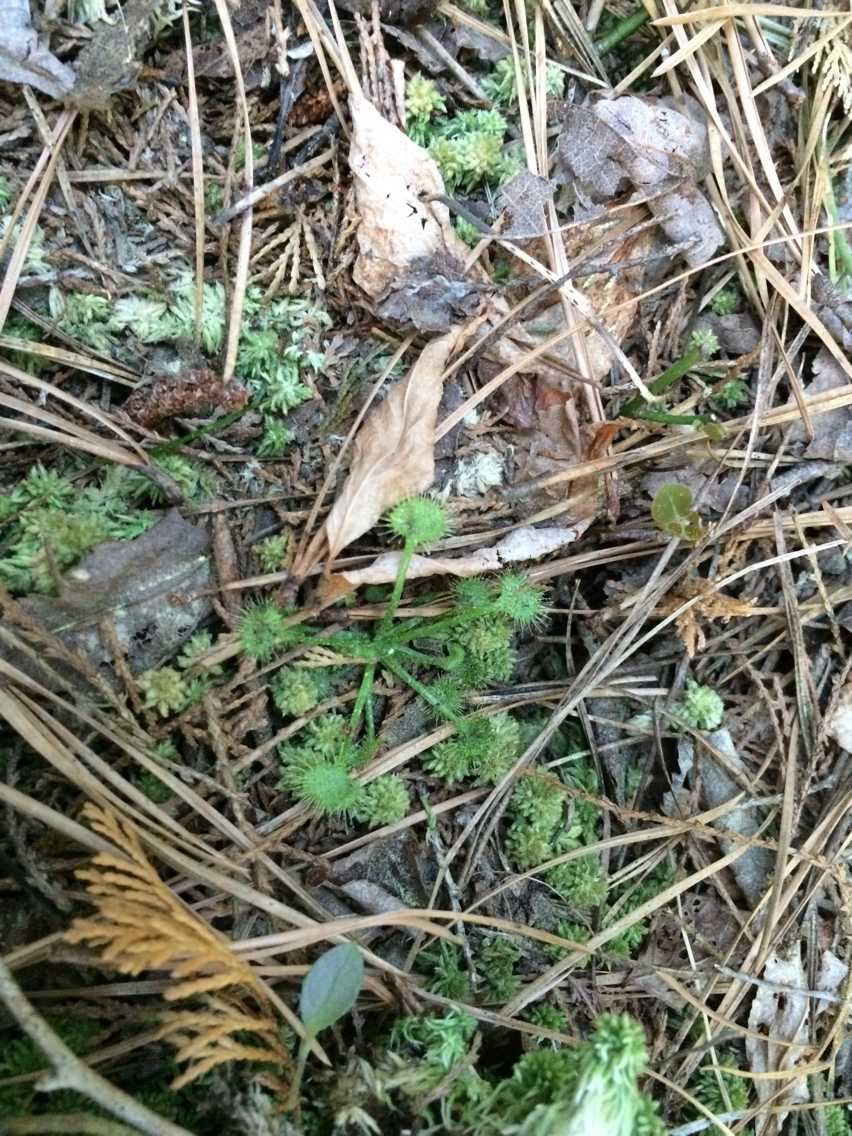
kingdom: Plantae
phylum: Tracheophyta
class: Magnoliopsida
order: Caryophyllales
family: Droseraceae
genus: Drosera
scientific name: Drosera rotundifolia
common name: Round-leaved sundew
